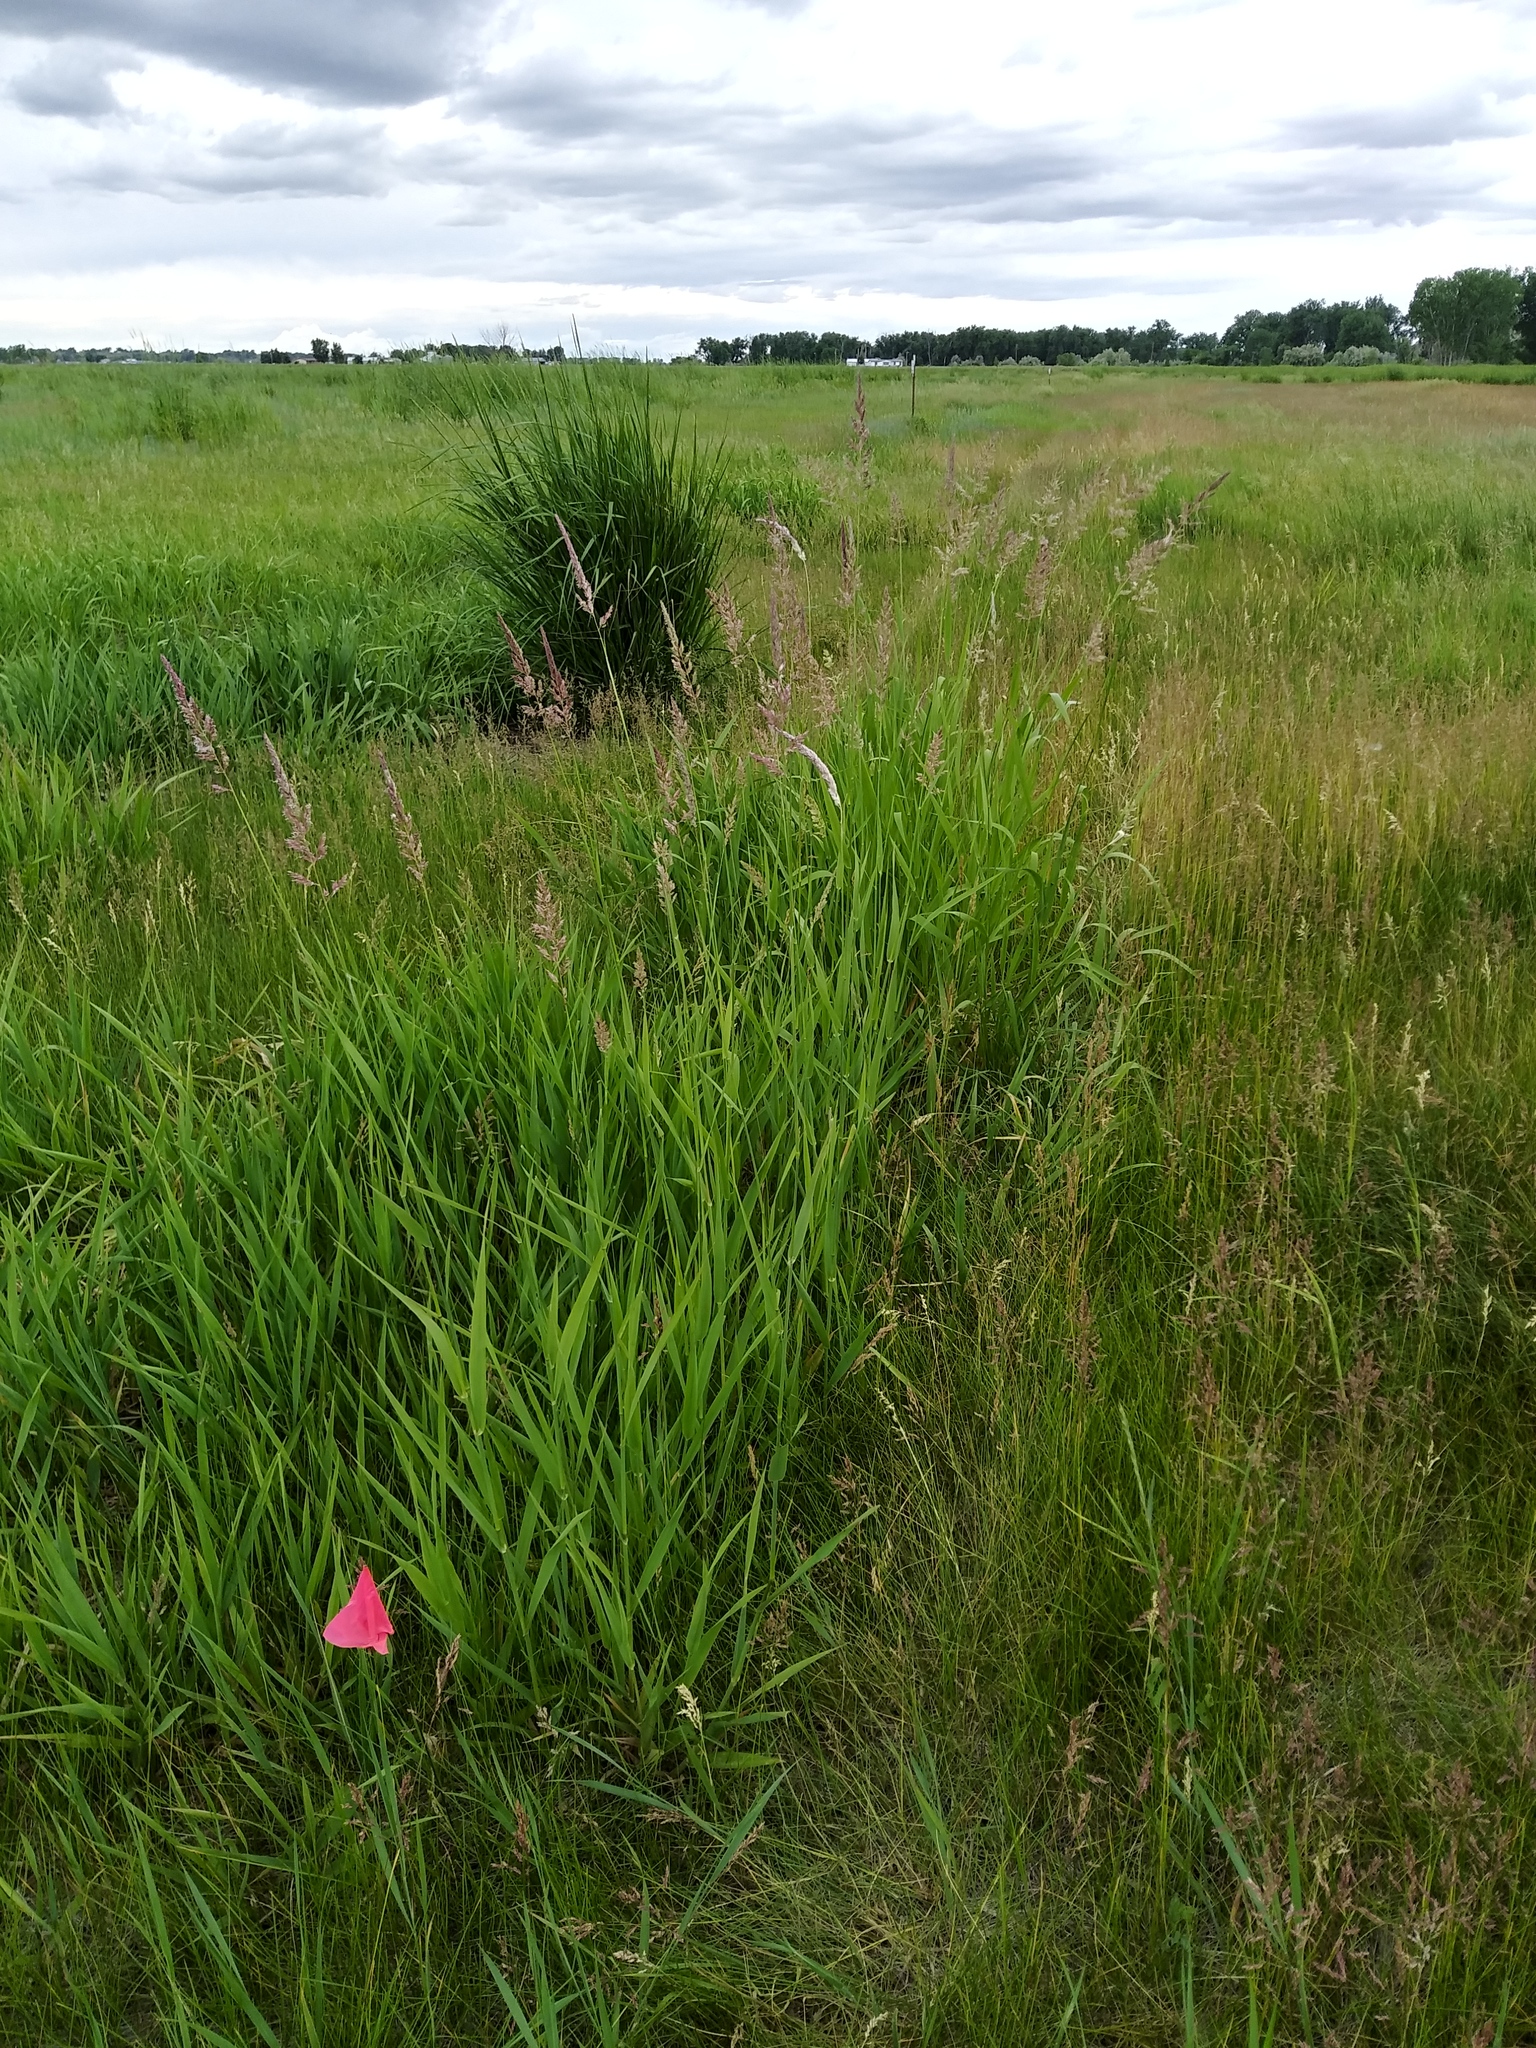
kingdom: Plantae
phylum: Tracheophyta
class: Liliopsida
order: Poales
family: Poaceae
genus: Phalaris
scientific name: Phalaris arundinacea
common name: Reed canary-grass
